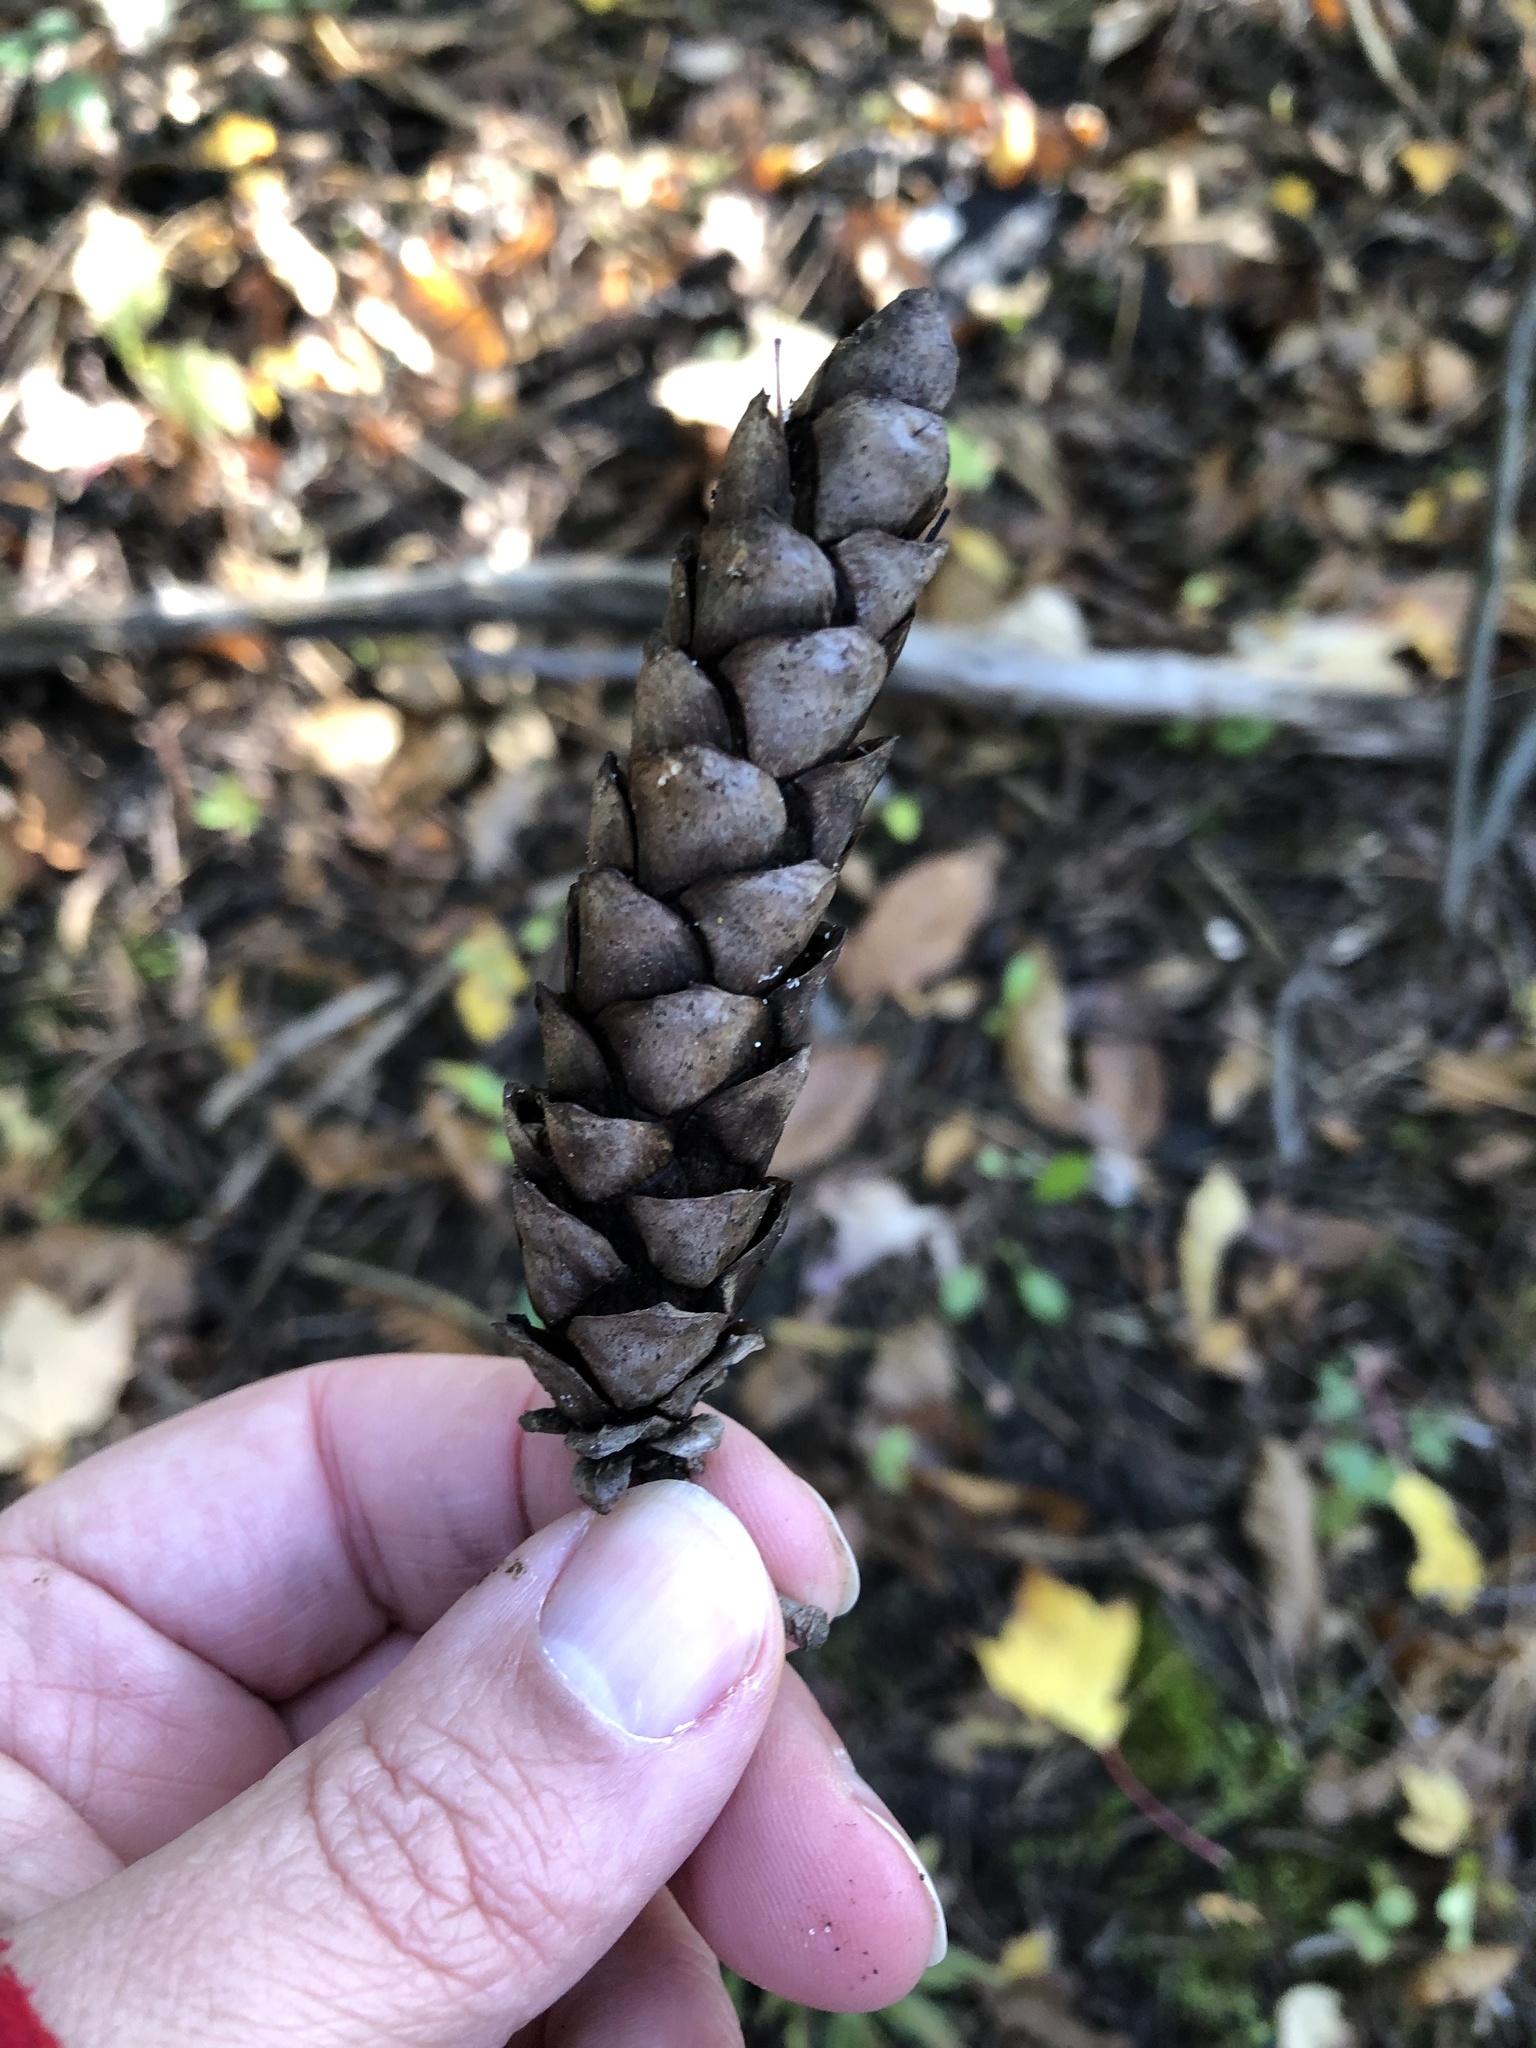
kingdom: Plantae
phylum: Tracheophyta
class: Pinopsida
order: Pinales
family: Pinaceae
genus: Pinus
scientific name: Pinus strobus
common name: Weymouth pine
